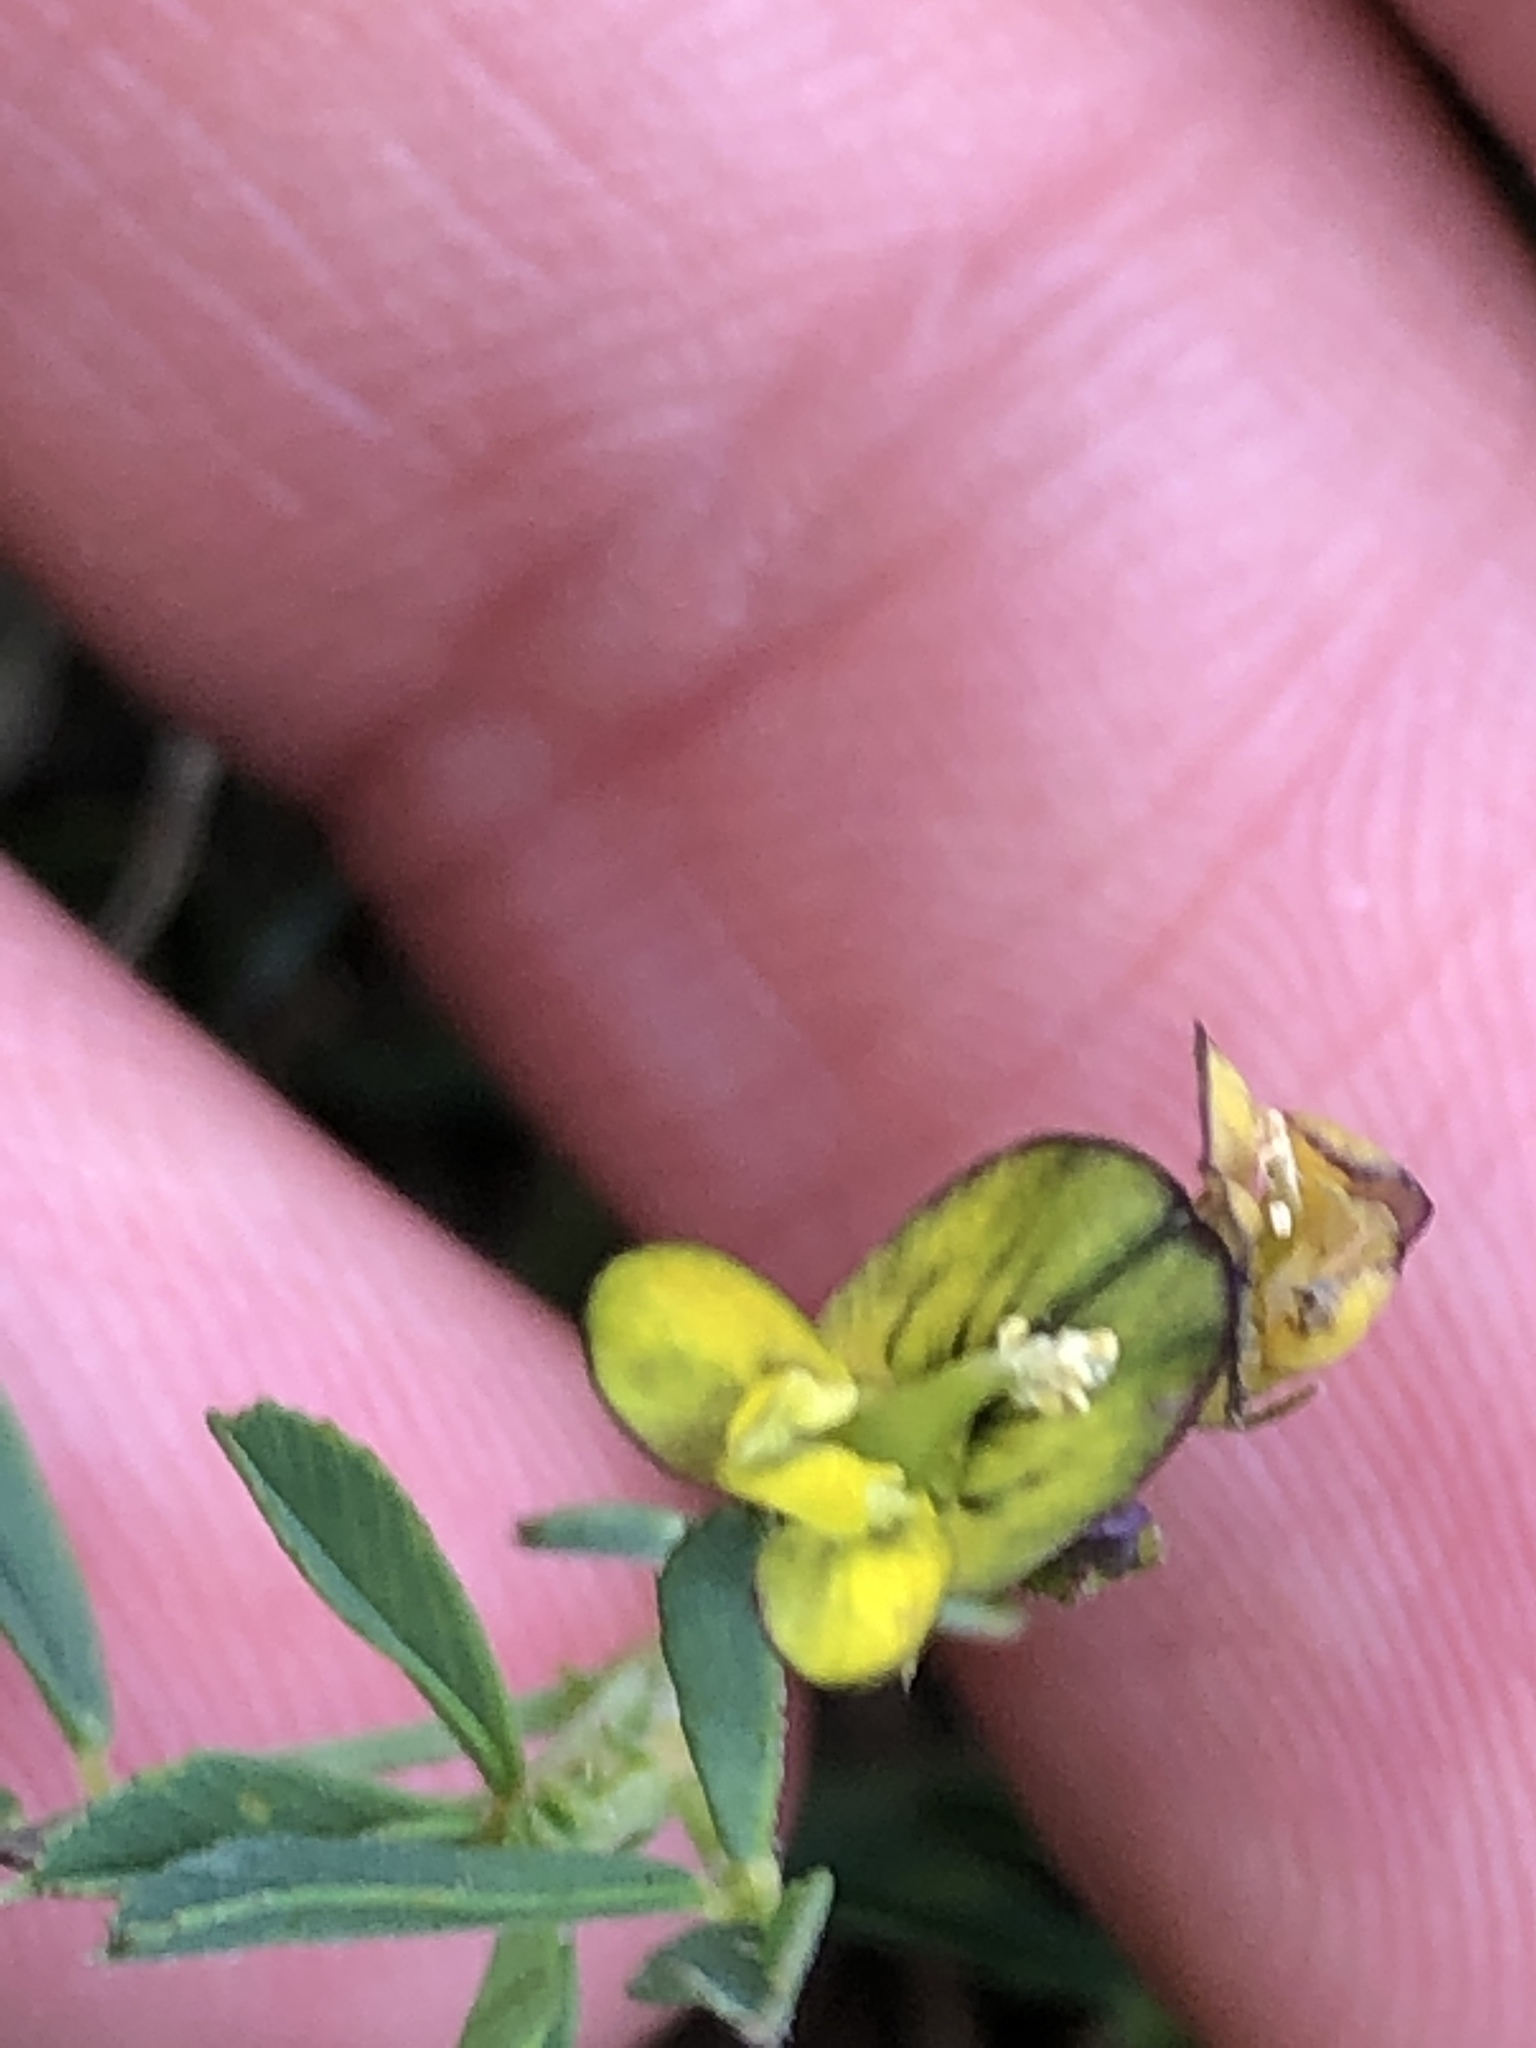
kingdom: Plantae
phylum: Tracheophyta
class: Magnoliopsida
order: Fabales
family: Fabaceae
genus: Medicago
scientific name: Medicago varia
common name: Sand lucerne
